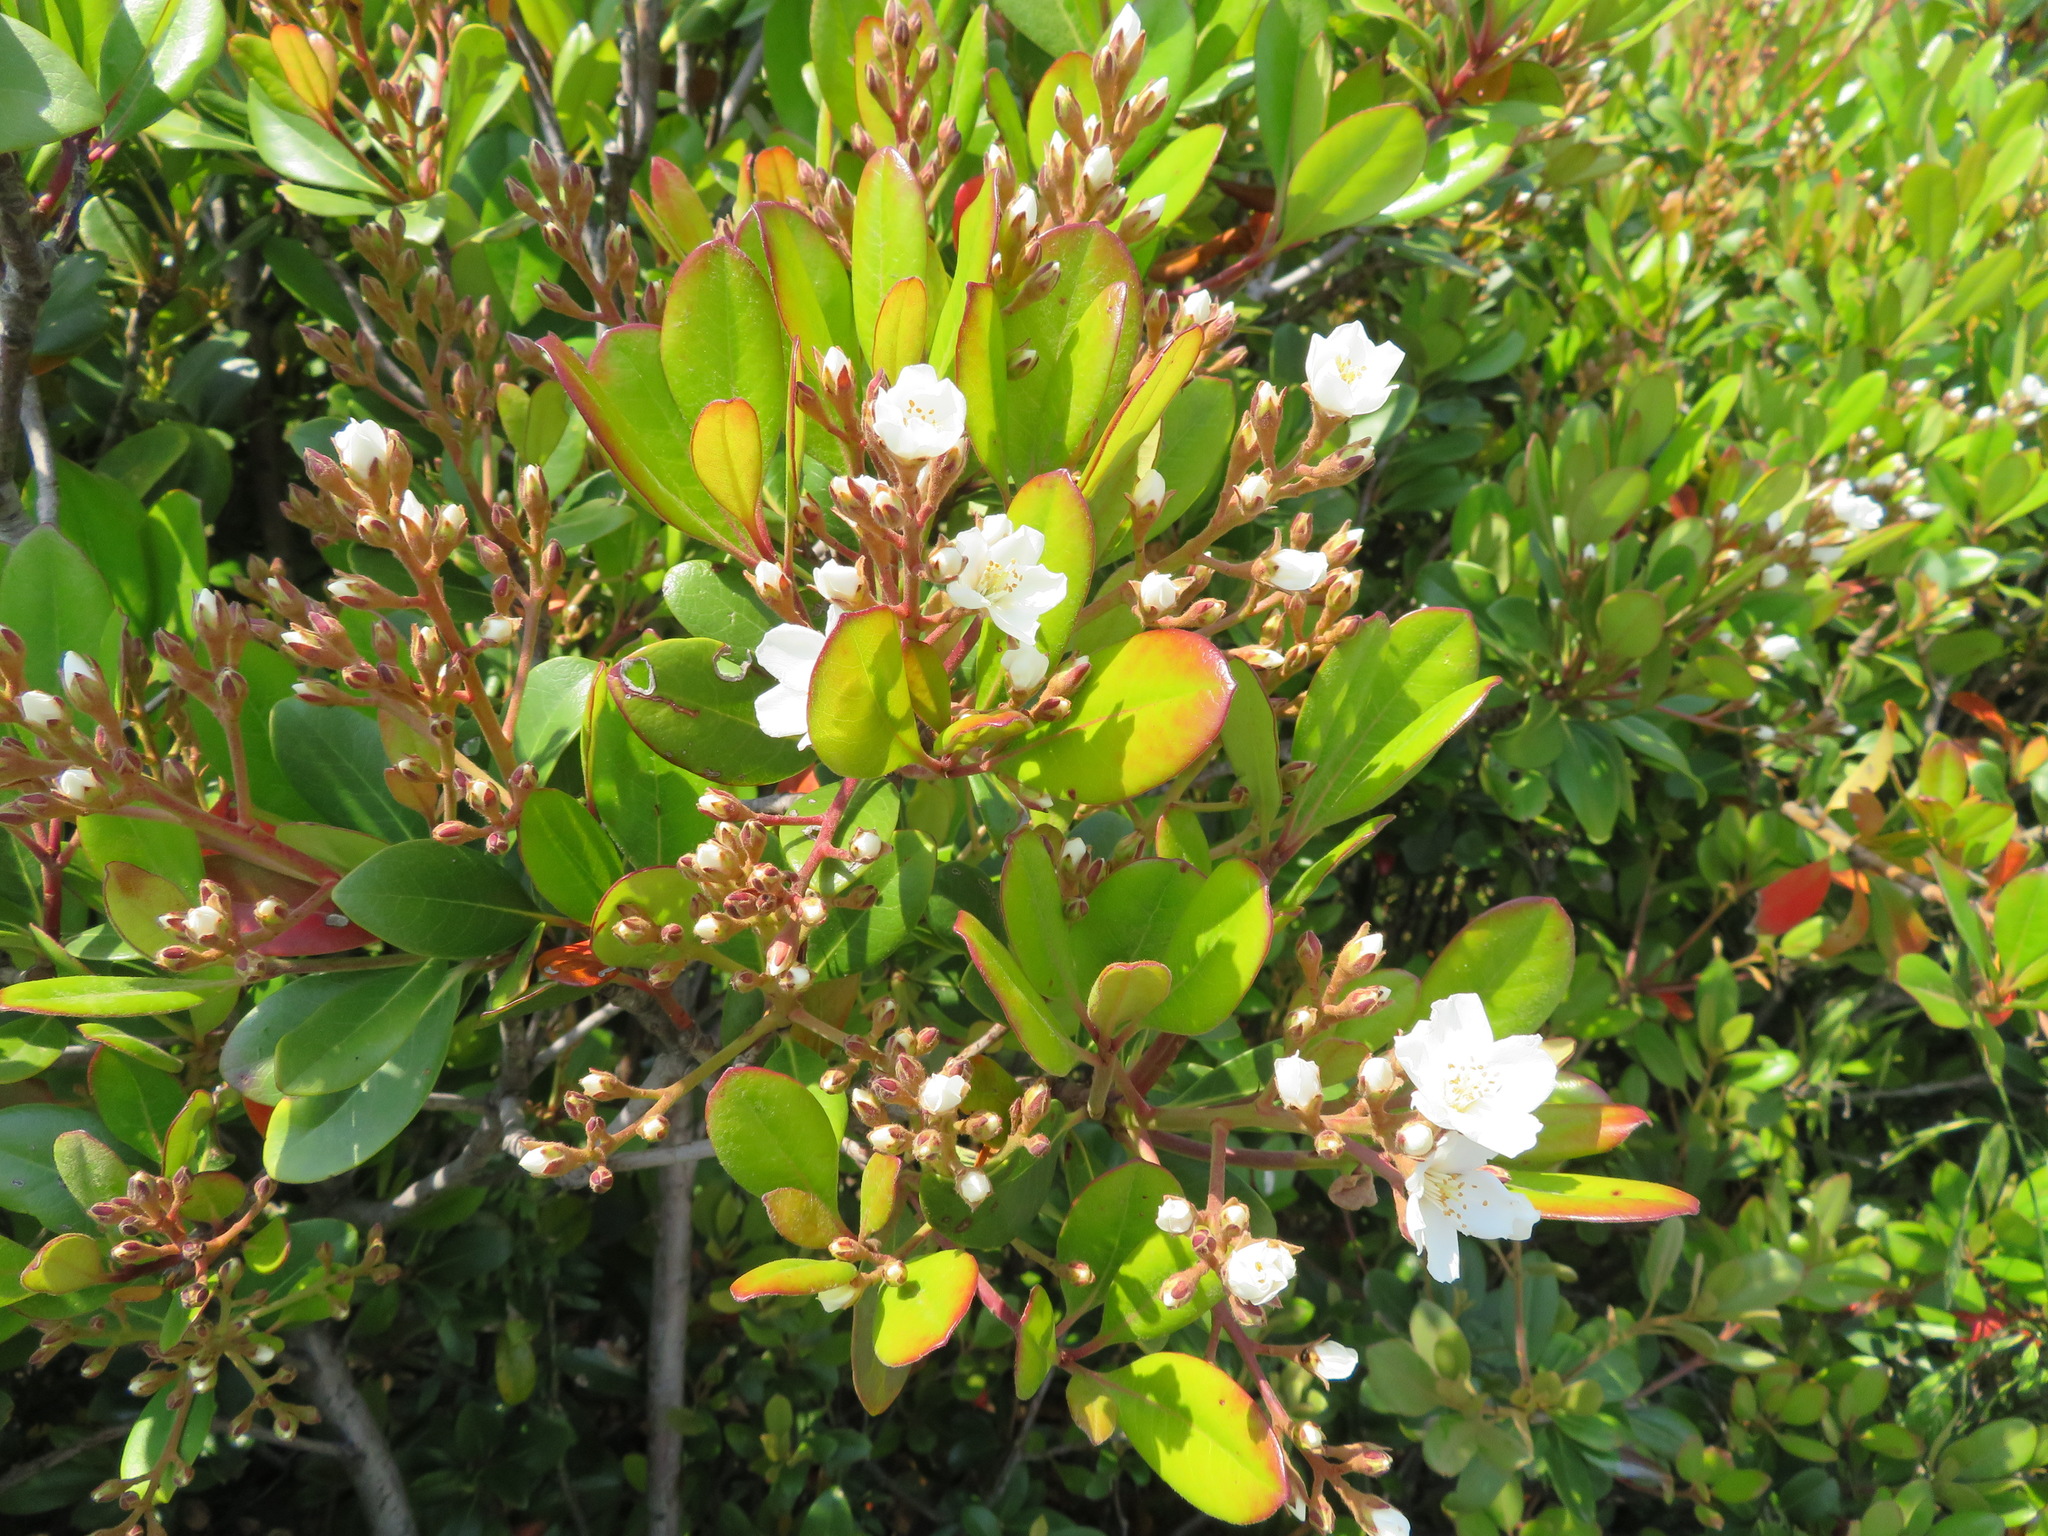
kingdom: Plantae
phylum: Tracheophyta
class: Magnoliopsida
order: Rosales
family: Rosaceae
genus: Rhaphiolepis
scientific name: Rhaphiolepis indica
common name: India-hawthorn
